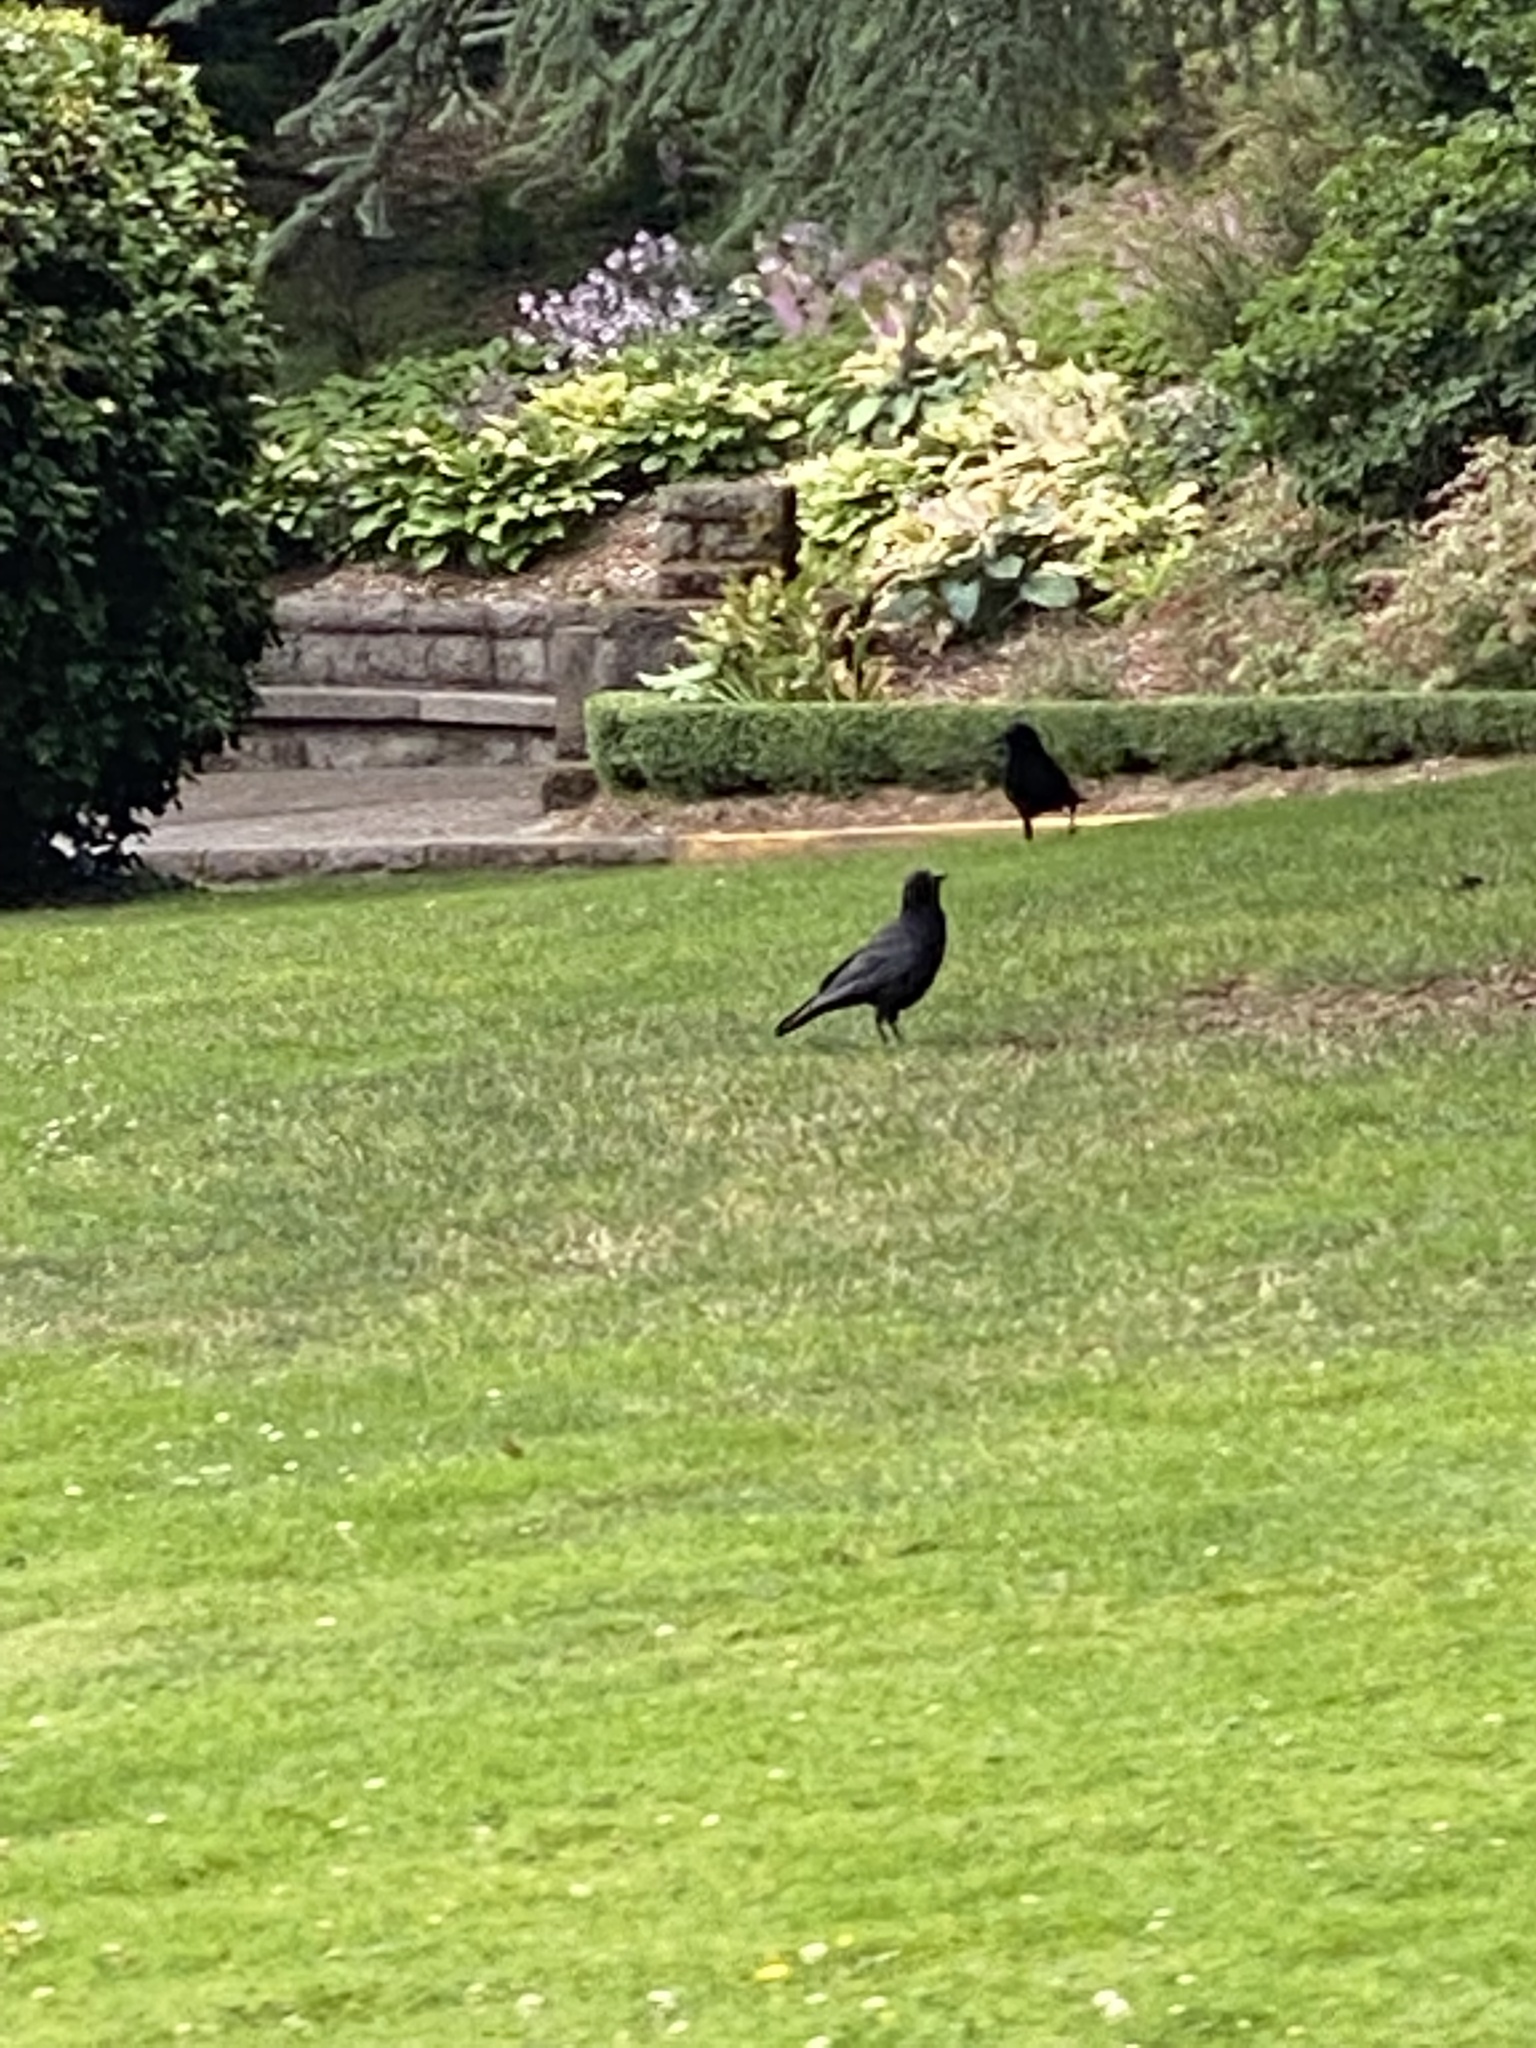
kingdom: Animalia
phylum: Chordata
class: Aves
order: Passeriformes
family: Corvidae
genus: Corvus
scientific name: Corvus brachyrhynchos
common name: American crow
